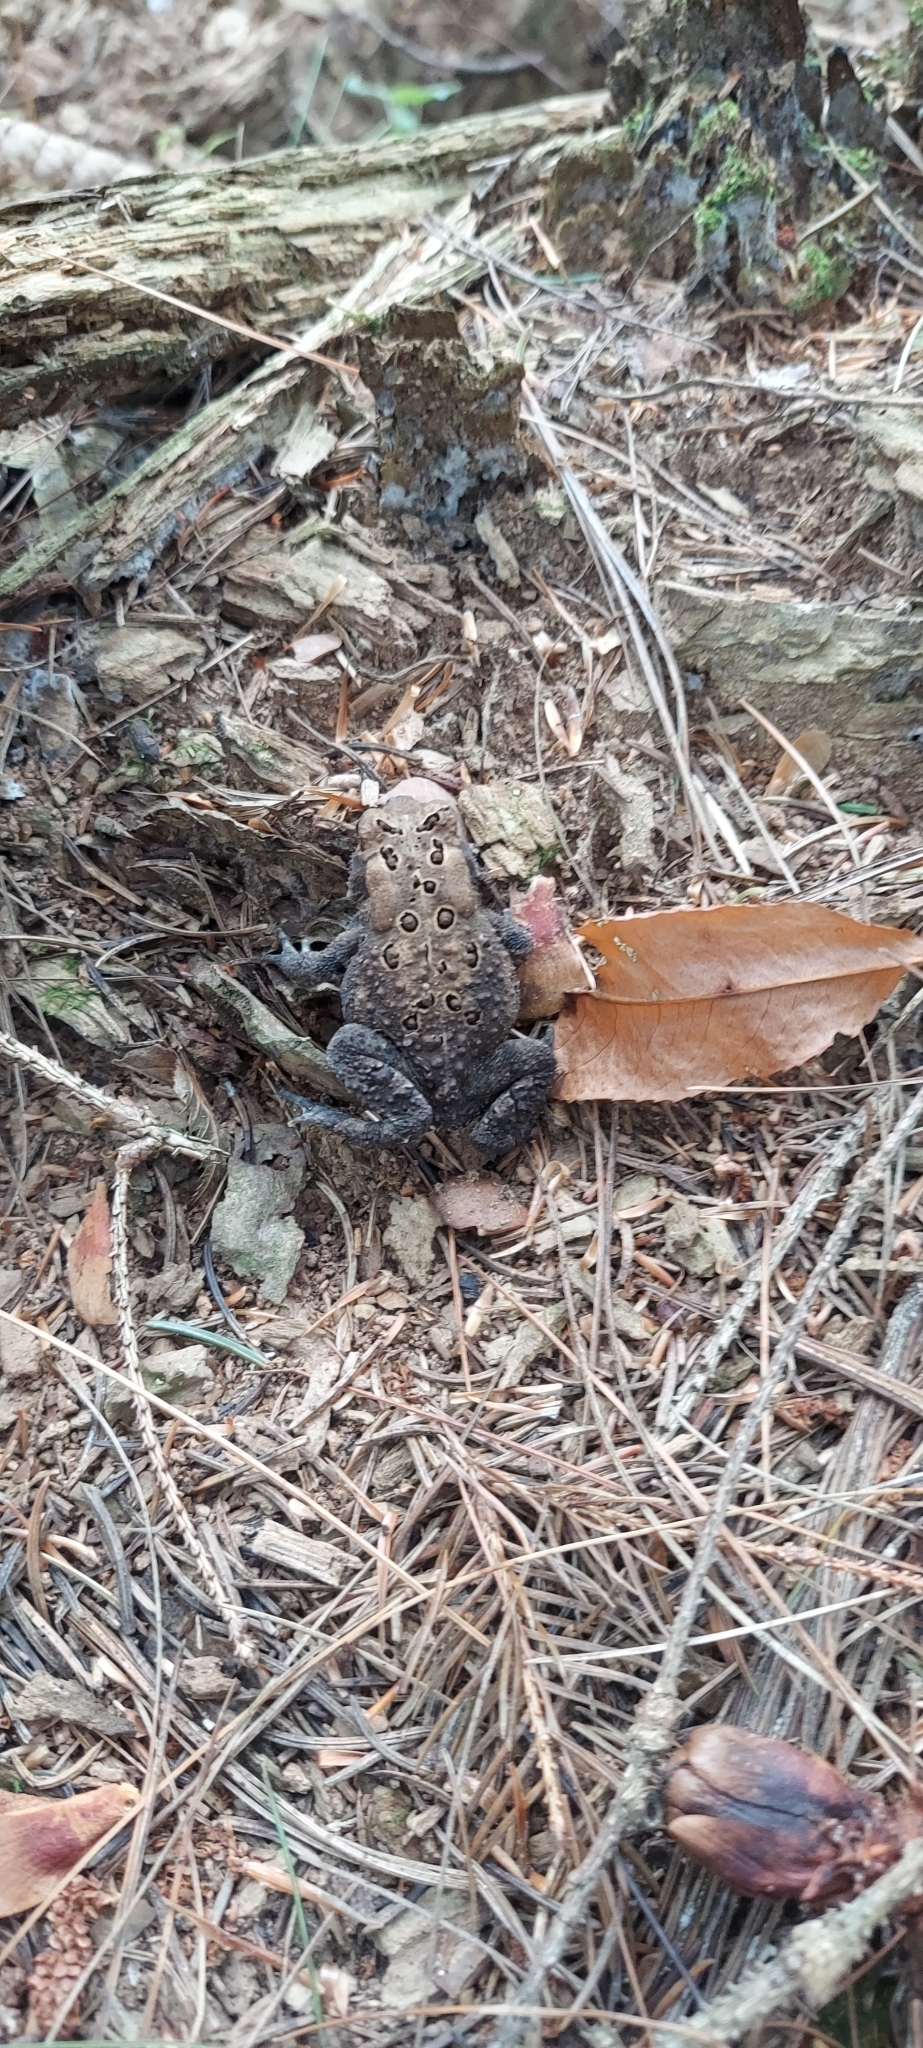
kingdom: Animalia
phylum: Chordata
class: Amphibia
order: Anura
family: Bufonidae
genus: Anaxyrus
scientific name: Anaxyrus americanus
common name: American toad
